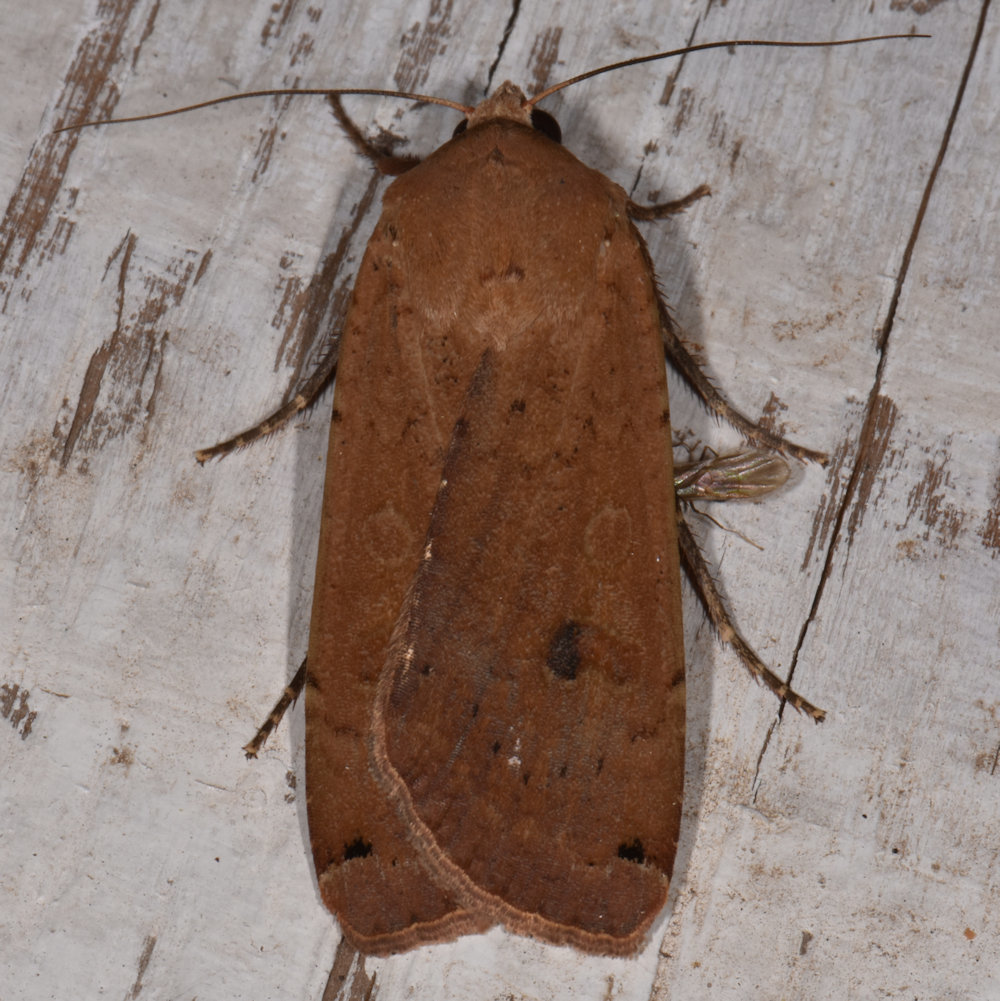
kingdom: Animalia
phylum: Arthropoda
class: Insecta
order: Lepidoptera
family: Noctuidae
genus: Noctua
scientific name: Noctua pronuba
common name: Large yellow underwing
